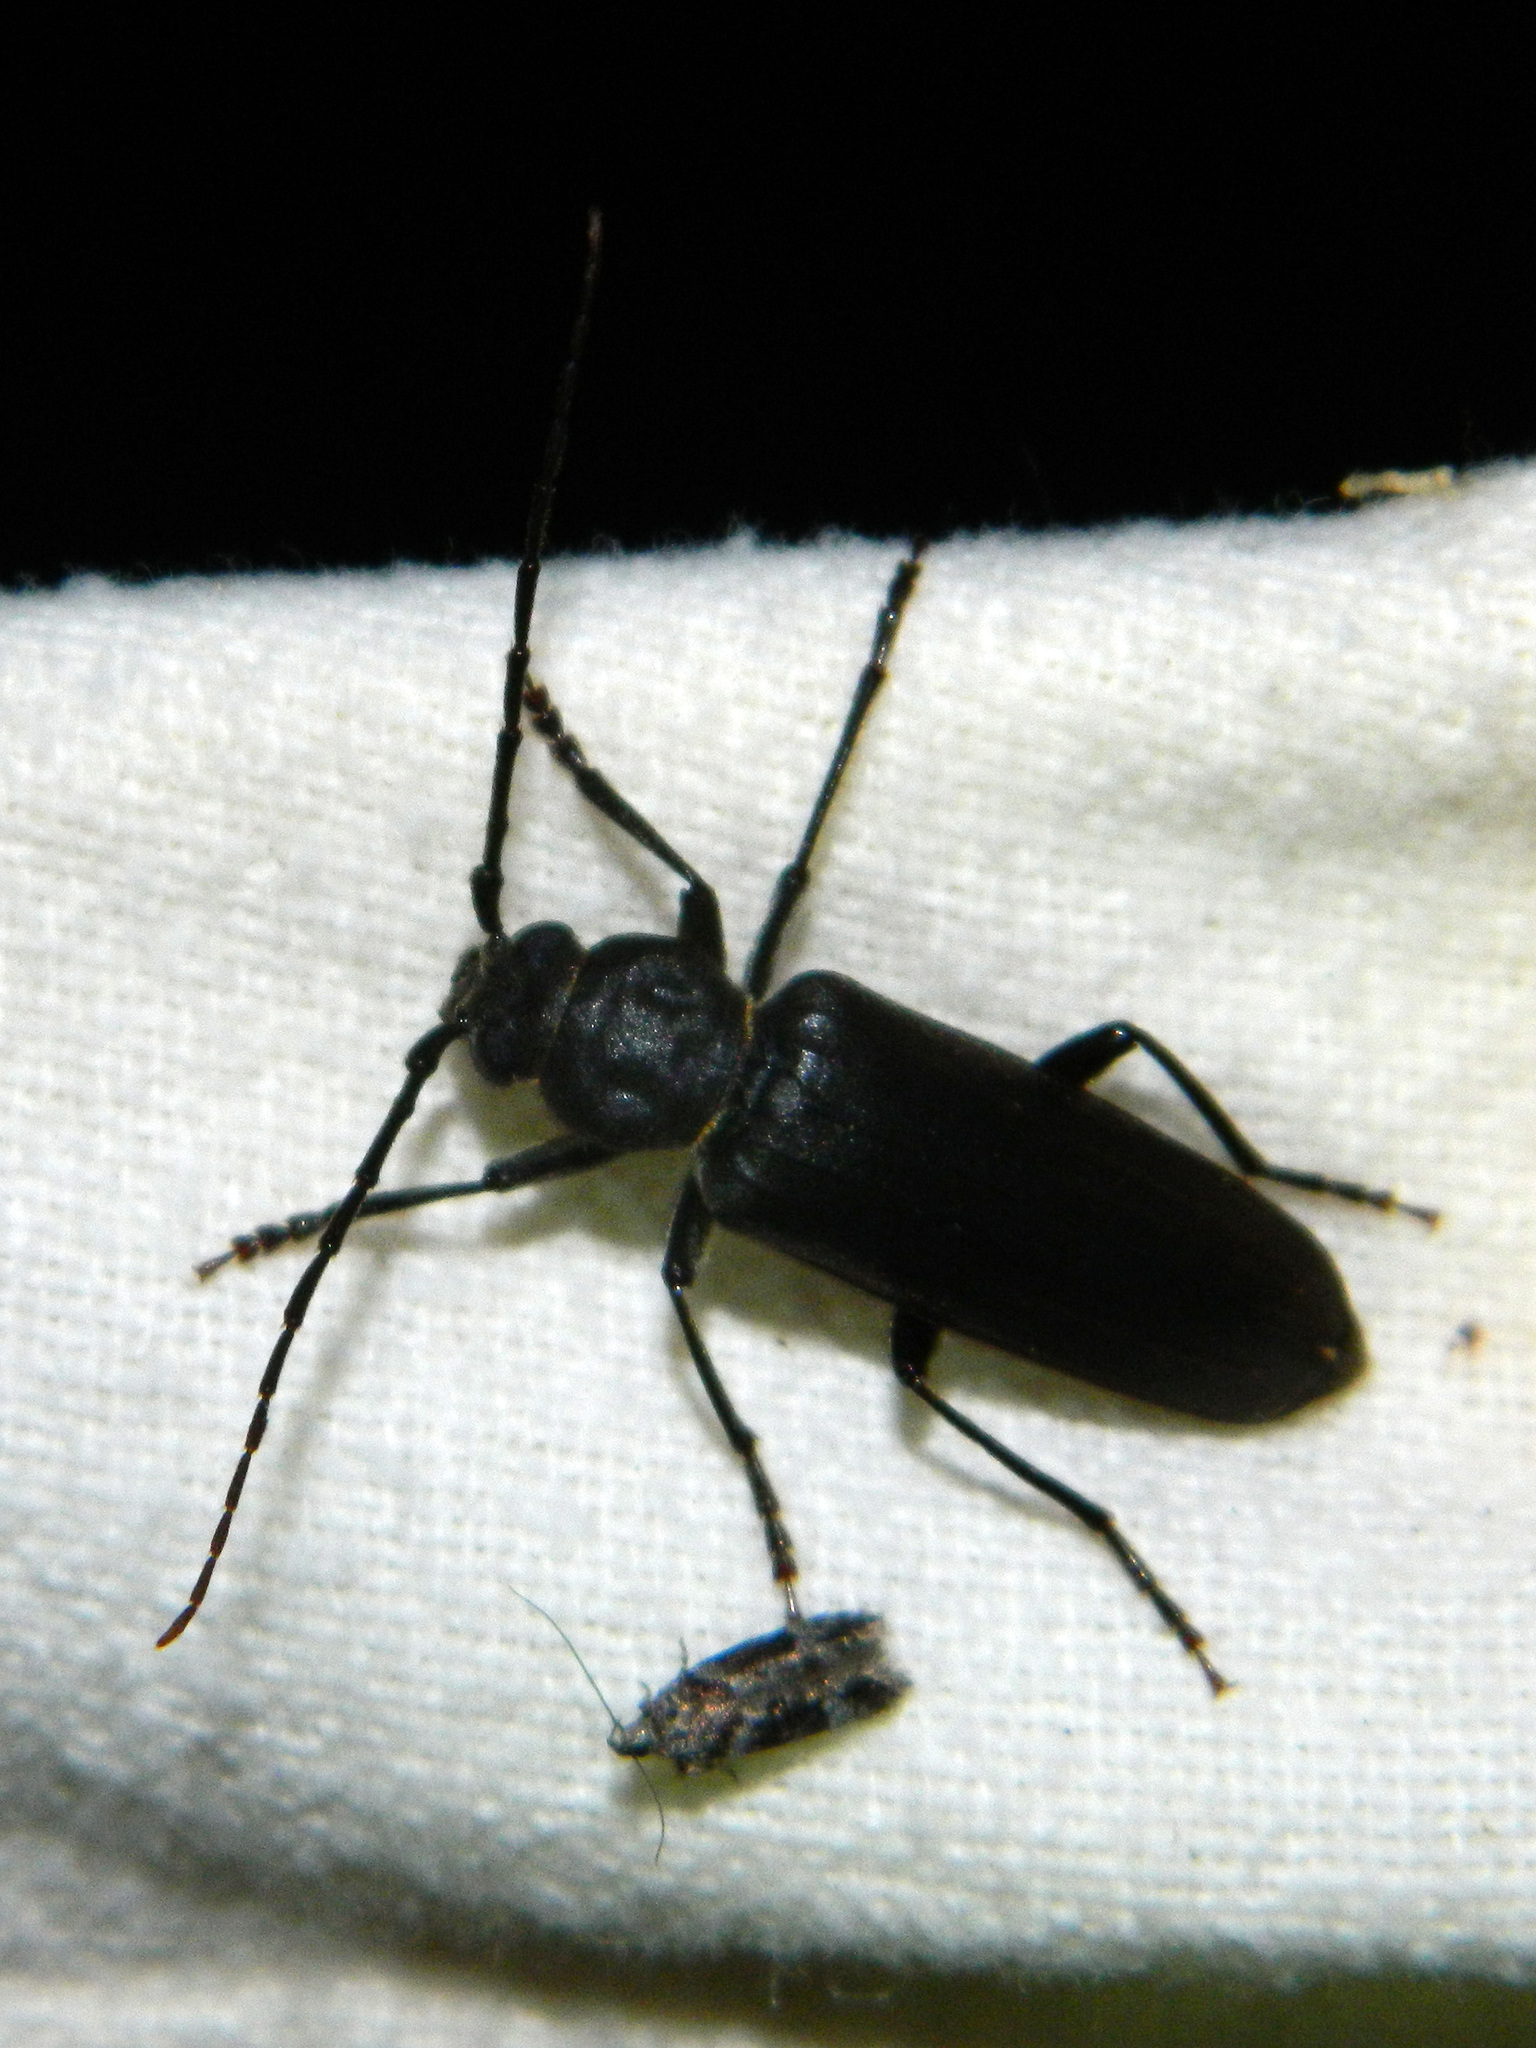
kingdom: Animalia
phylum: Arthropoda
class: Insecta
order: Coleoptera
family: Cerambycidae
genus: Arhopalus
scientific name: Arhopalus foveicollis
